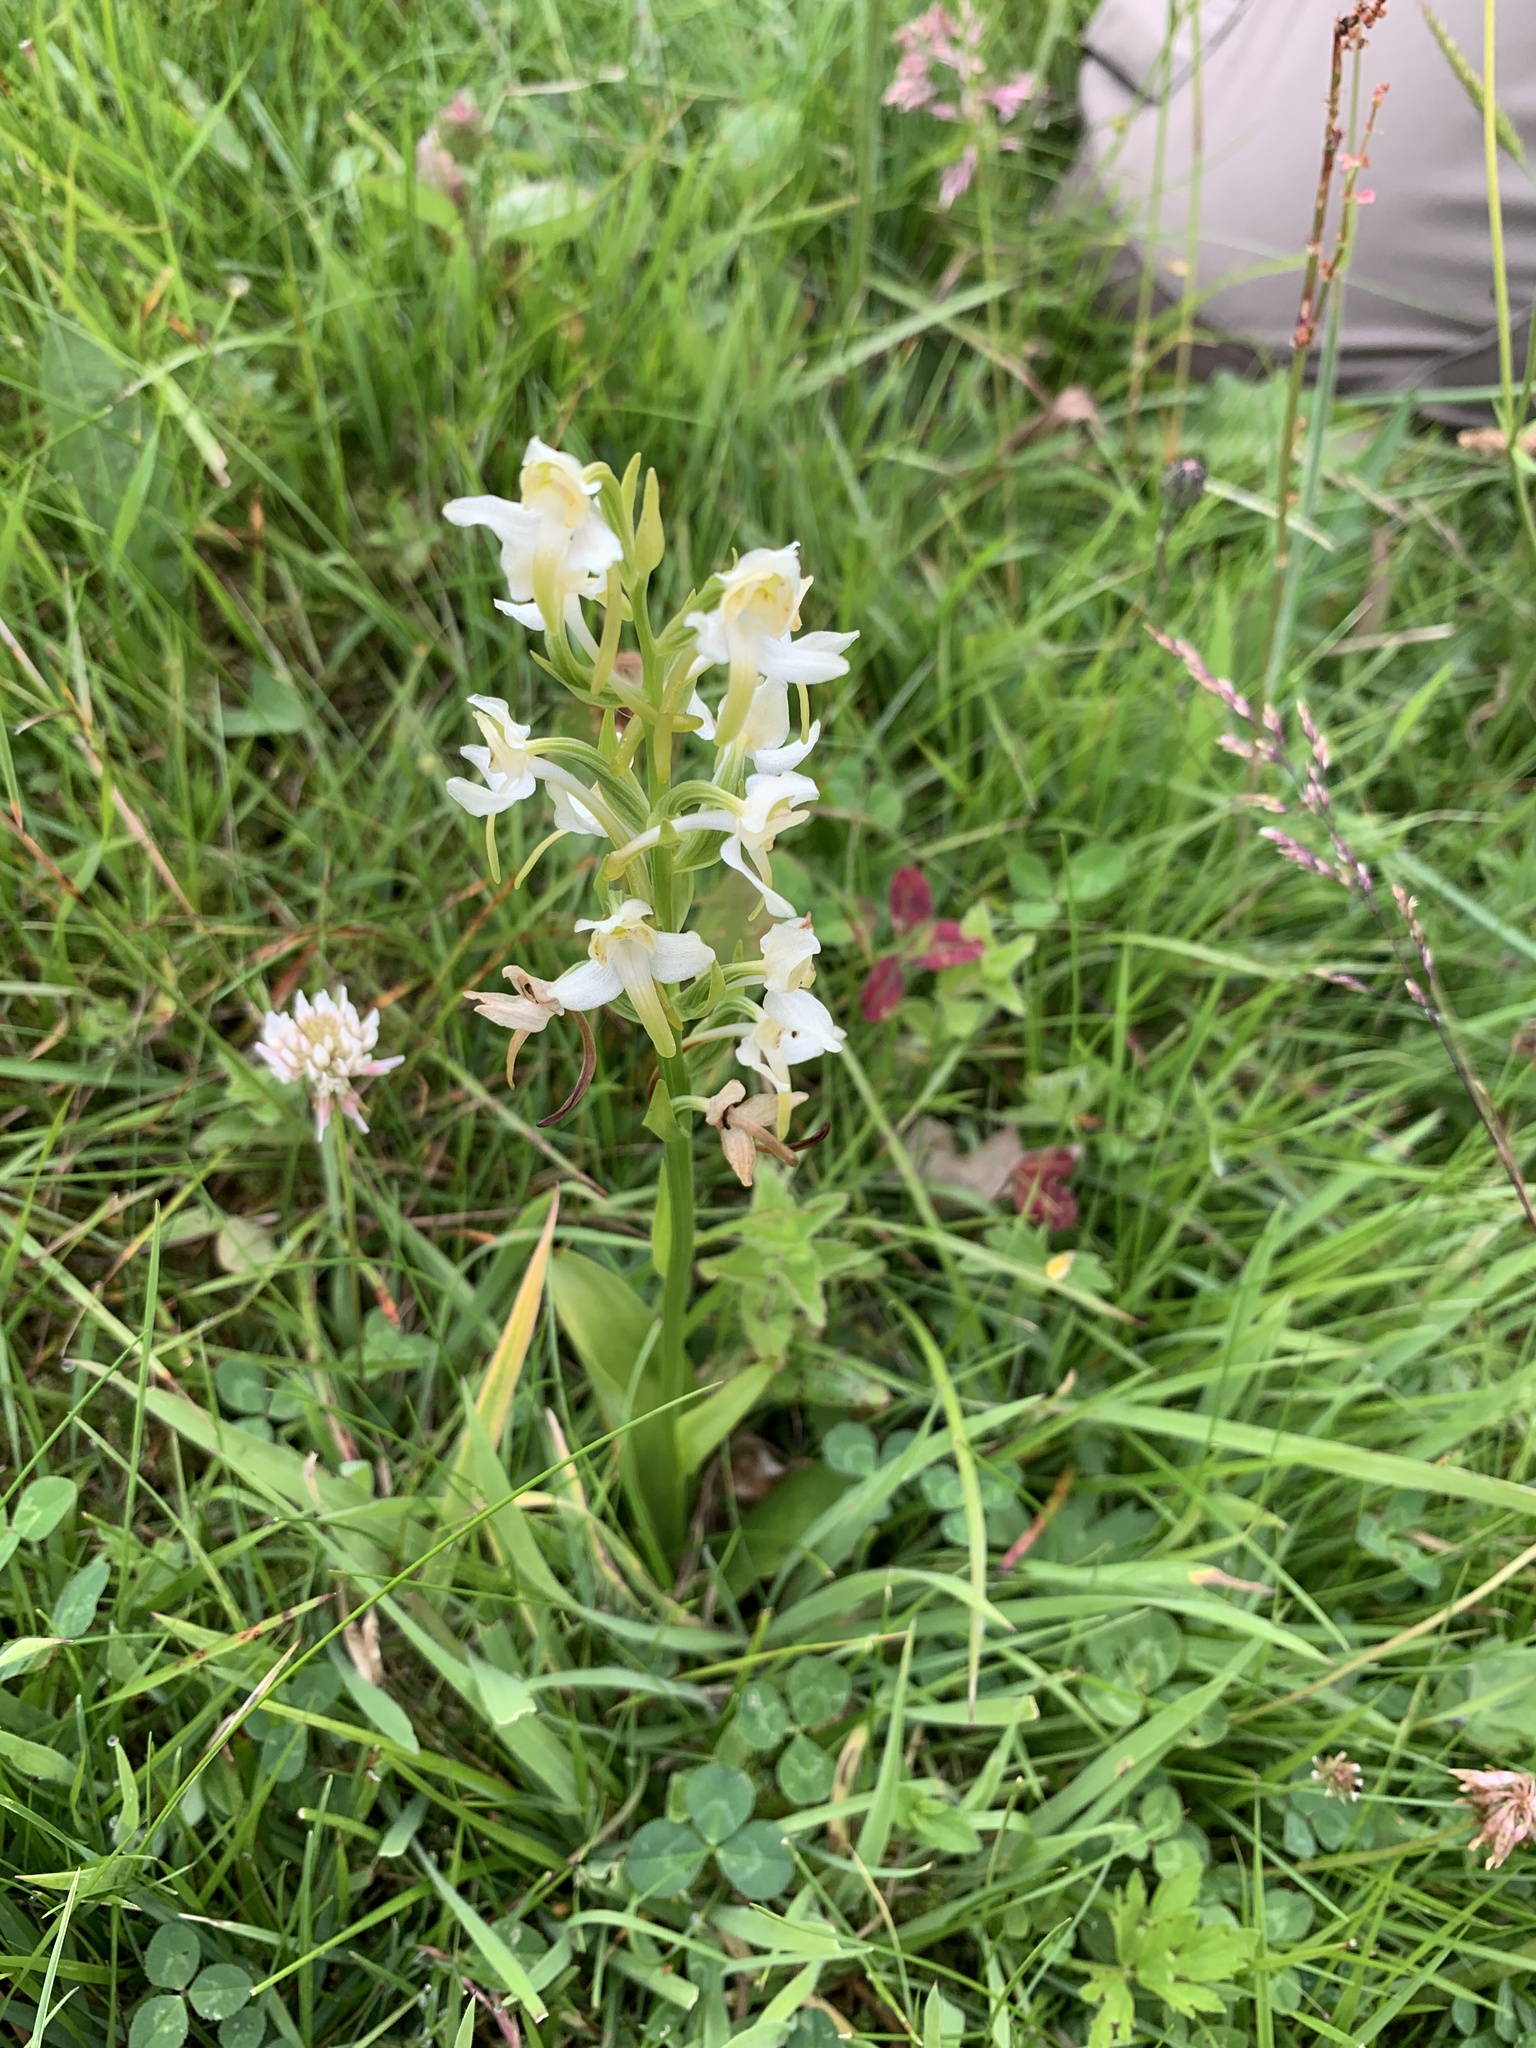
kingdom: Plantae
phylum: Tracheophyta
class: Liliopsida
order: Asparagales
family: Orchidaceae
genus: Platanthera
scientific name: Platanthera chlorantha
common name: Greater butterfly-orchid
